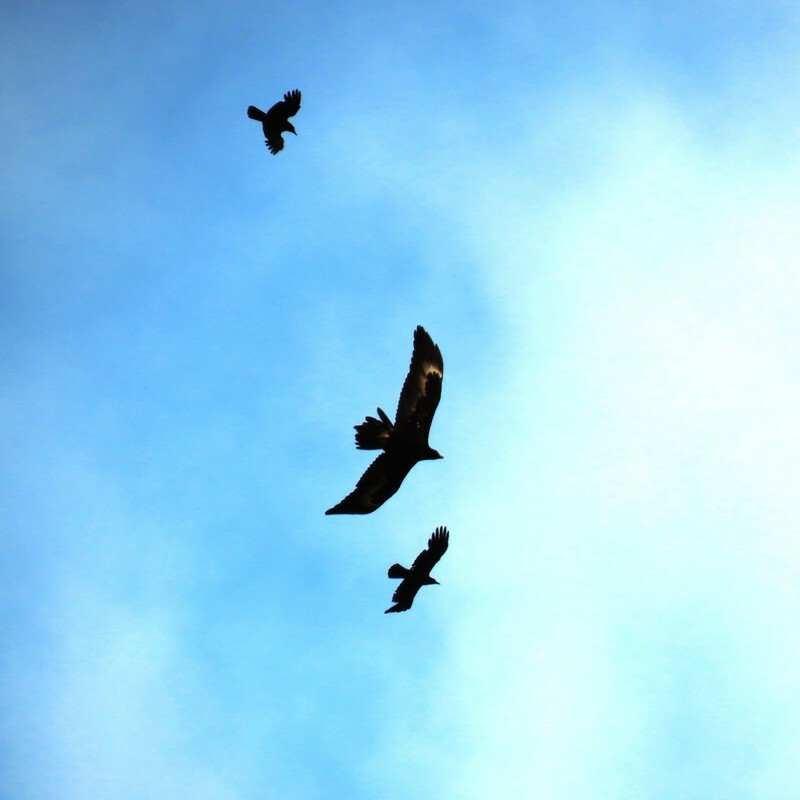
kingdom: Animalia
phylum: Chordata
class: Aves
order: Accipitriformes
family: Accipitridae
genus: Aquila
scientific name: Aquila audax
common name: Wedge-tailed eagle
